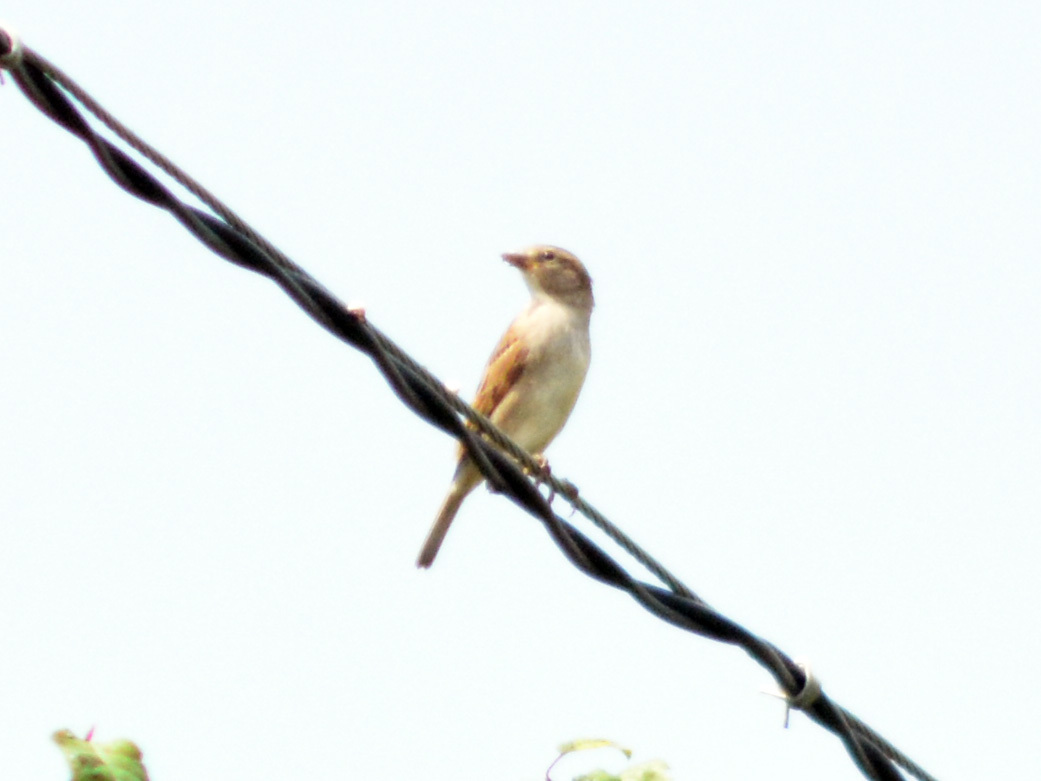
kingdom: Animalia
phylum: Chordata
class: Aves
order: Passeriformes
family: Passeridae
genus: Passer
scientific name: Passer domesticus
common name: House sparrow
